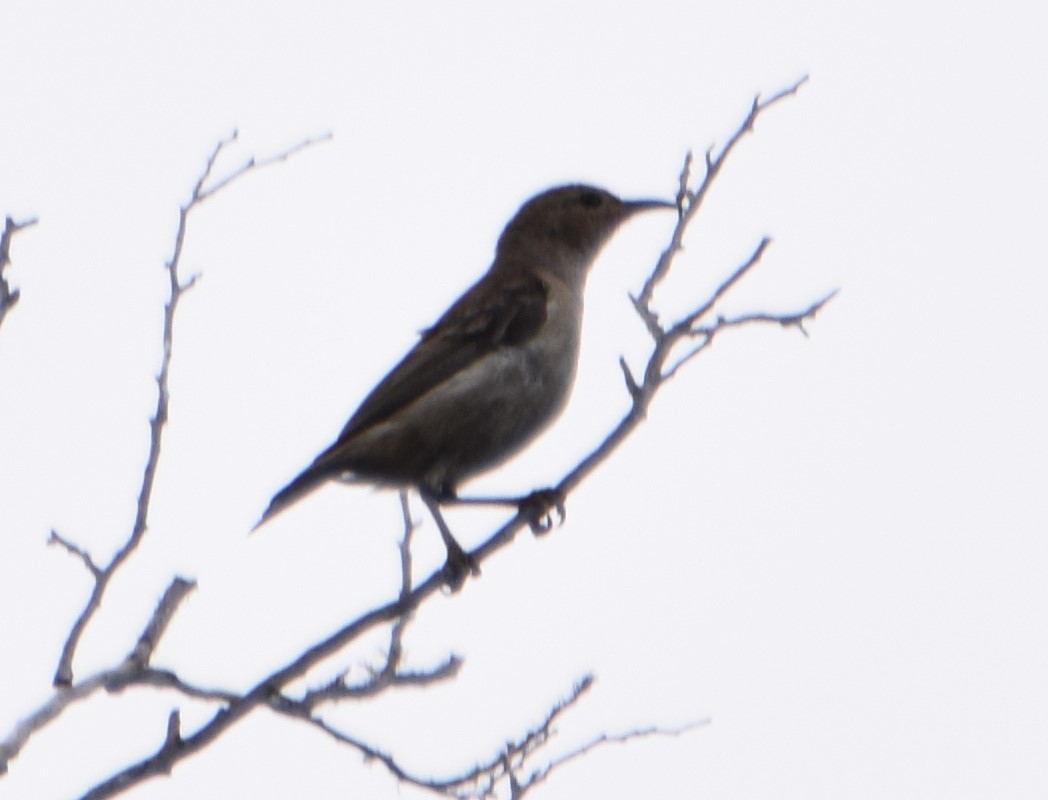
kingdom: Animalia
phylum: Chordata
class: Aves
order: Passeriformes
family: Meliphagidae
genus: Myzomela
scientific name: Myzomela sanguinolenta
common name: Scarlet myzomela
